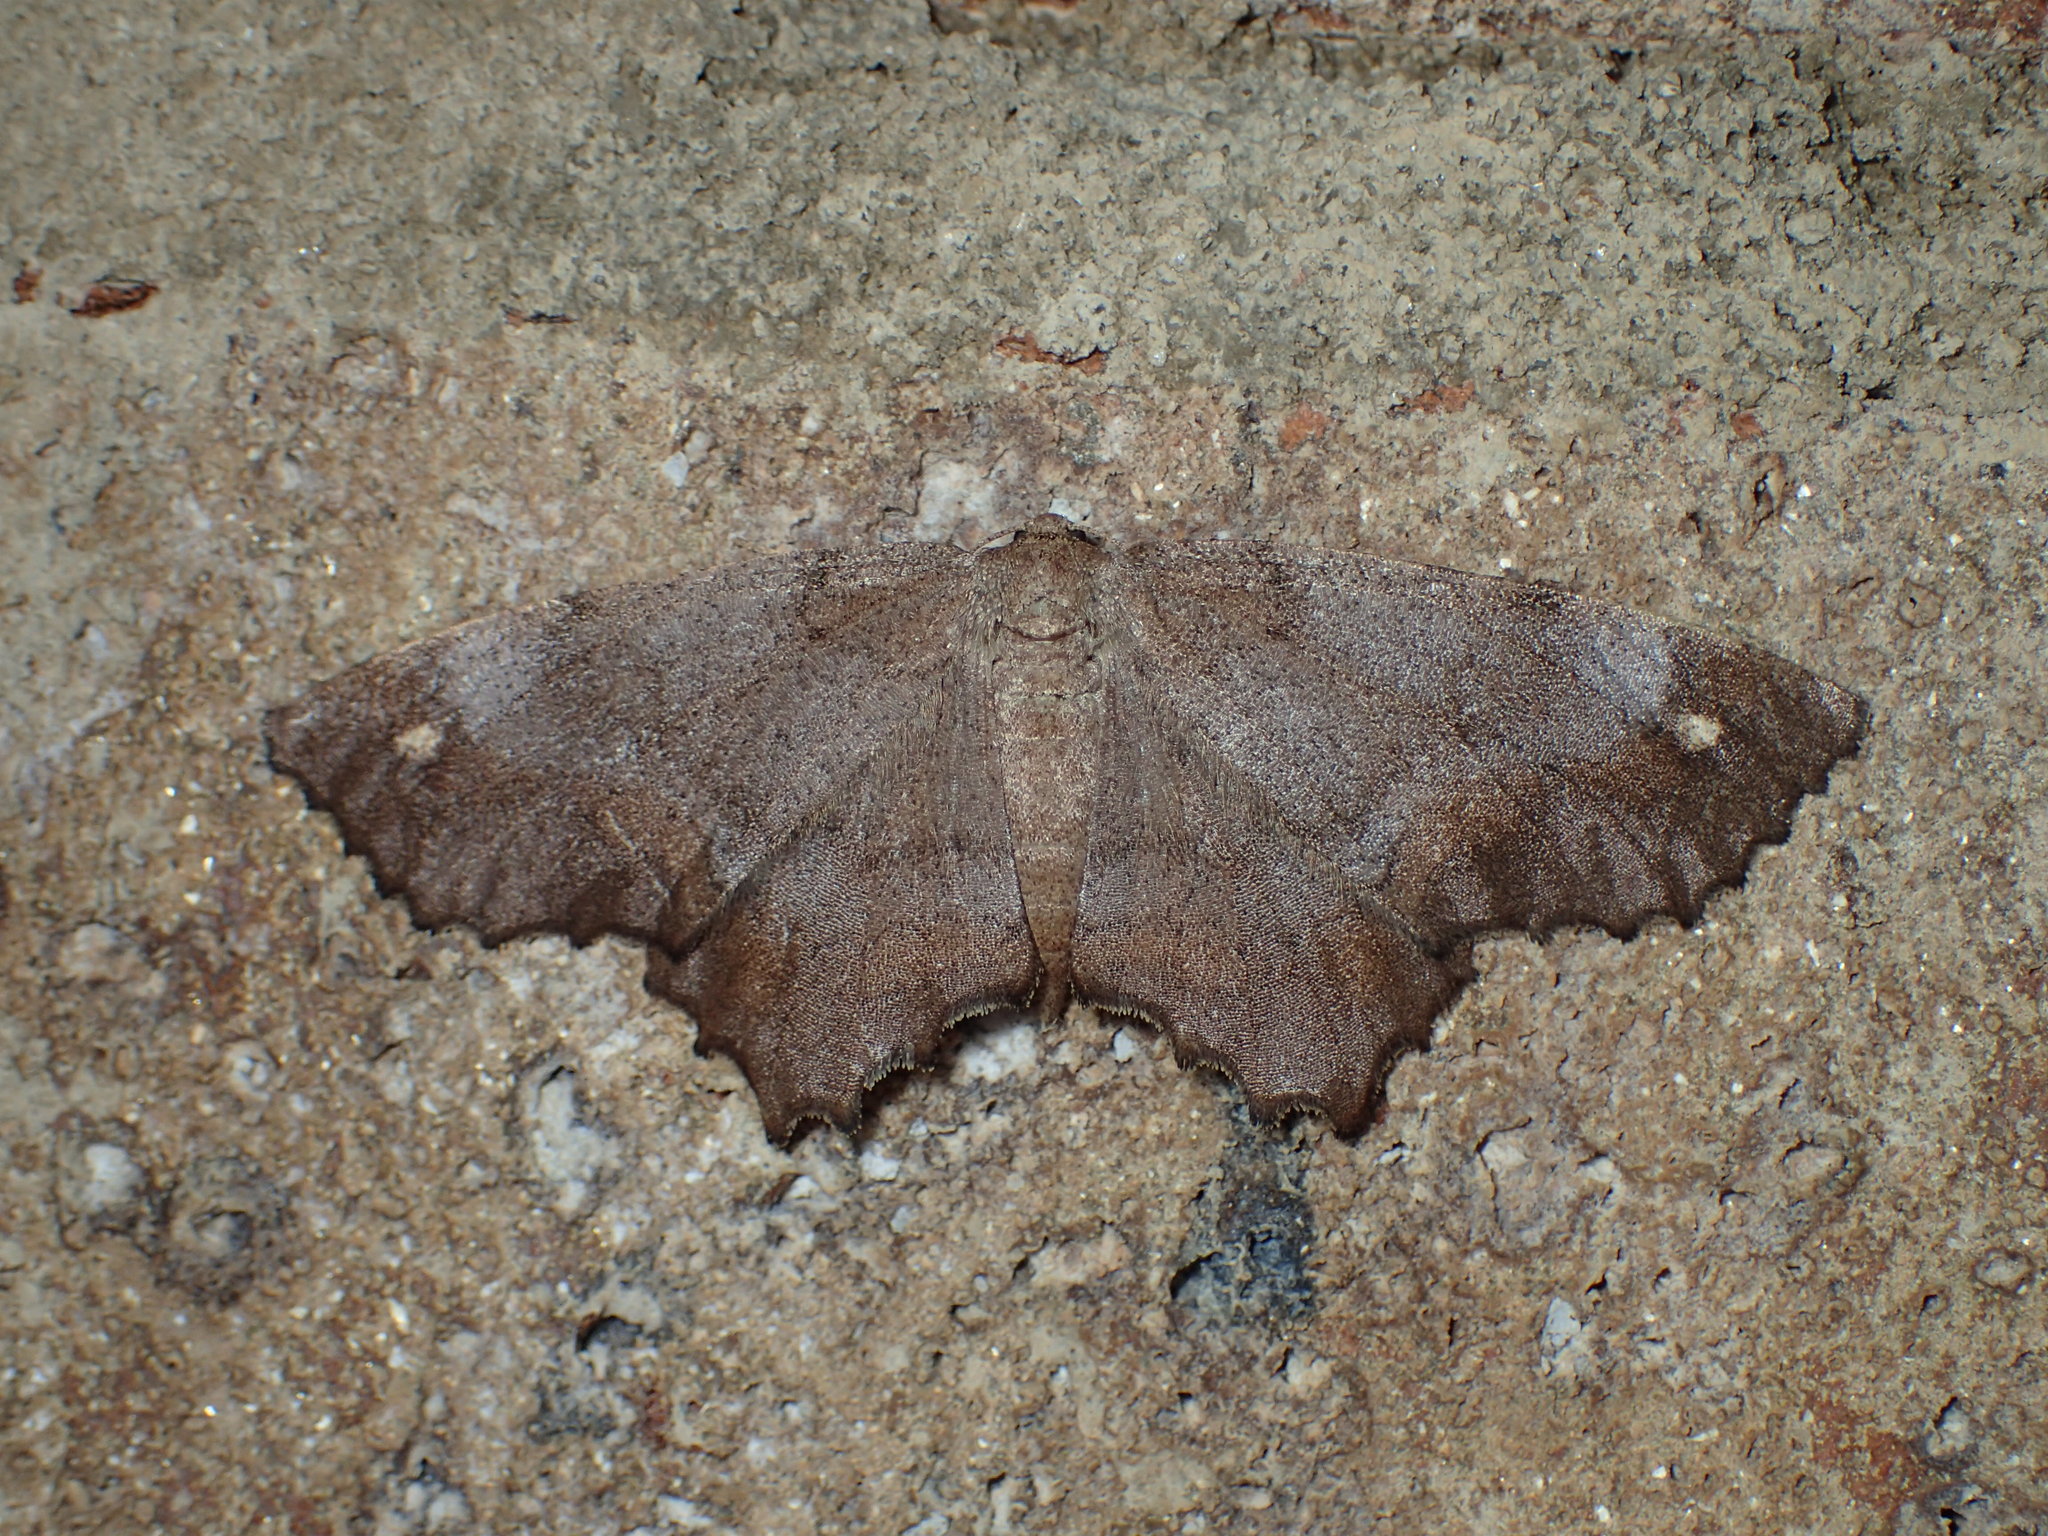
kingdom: Animalia
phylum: Arthropoda
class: Insecta
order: Lepidoptera
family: Geometridae
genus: Hypagyrtis
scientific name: Hypagyrtis
